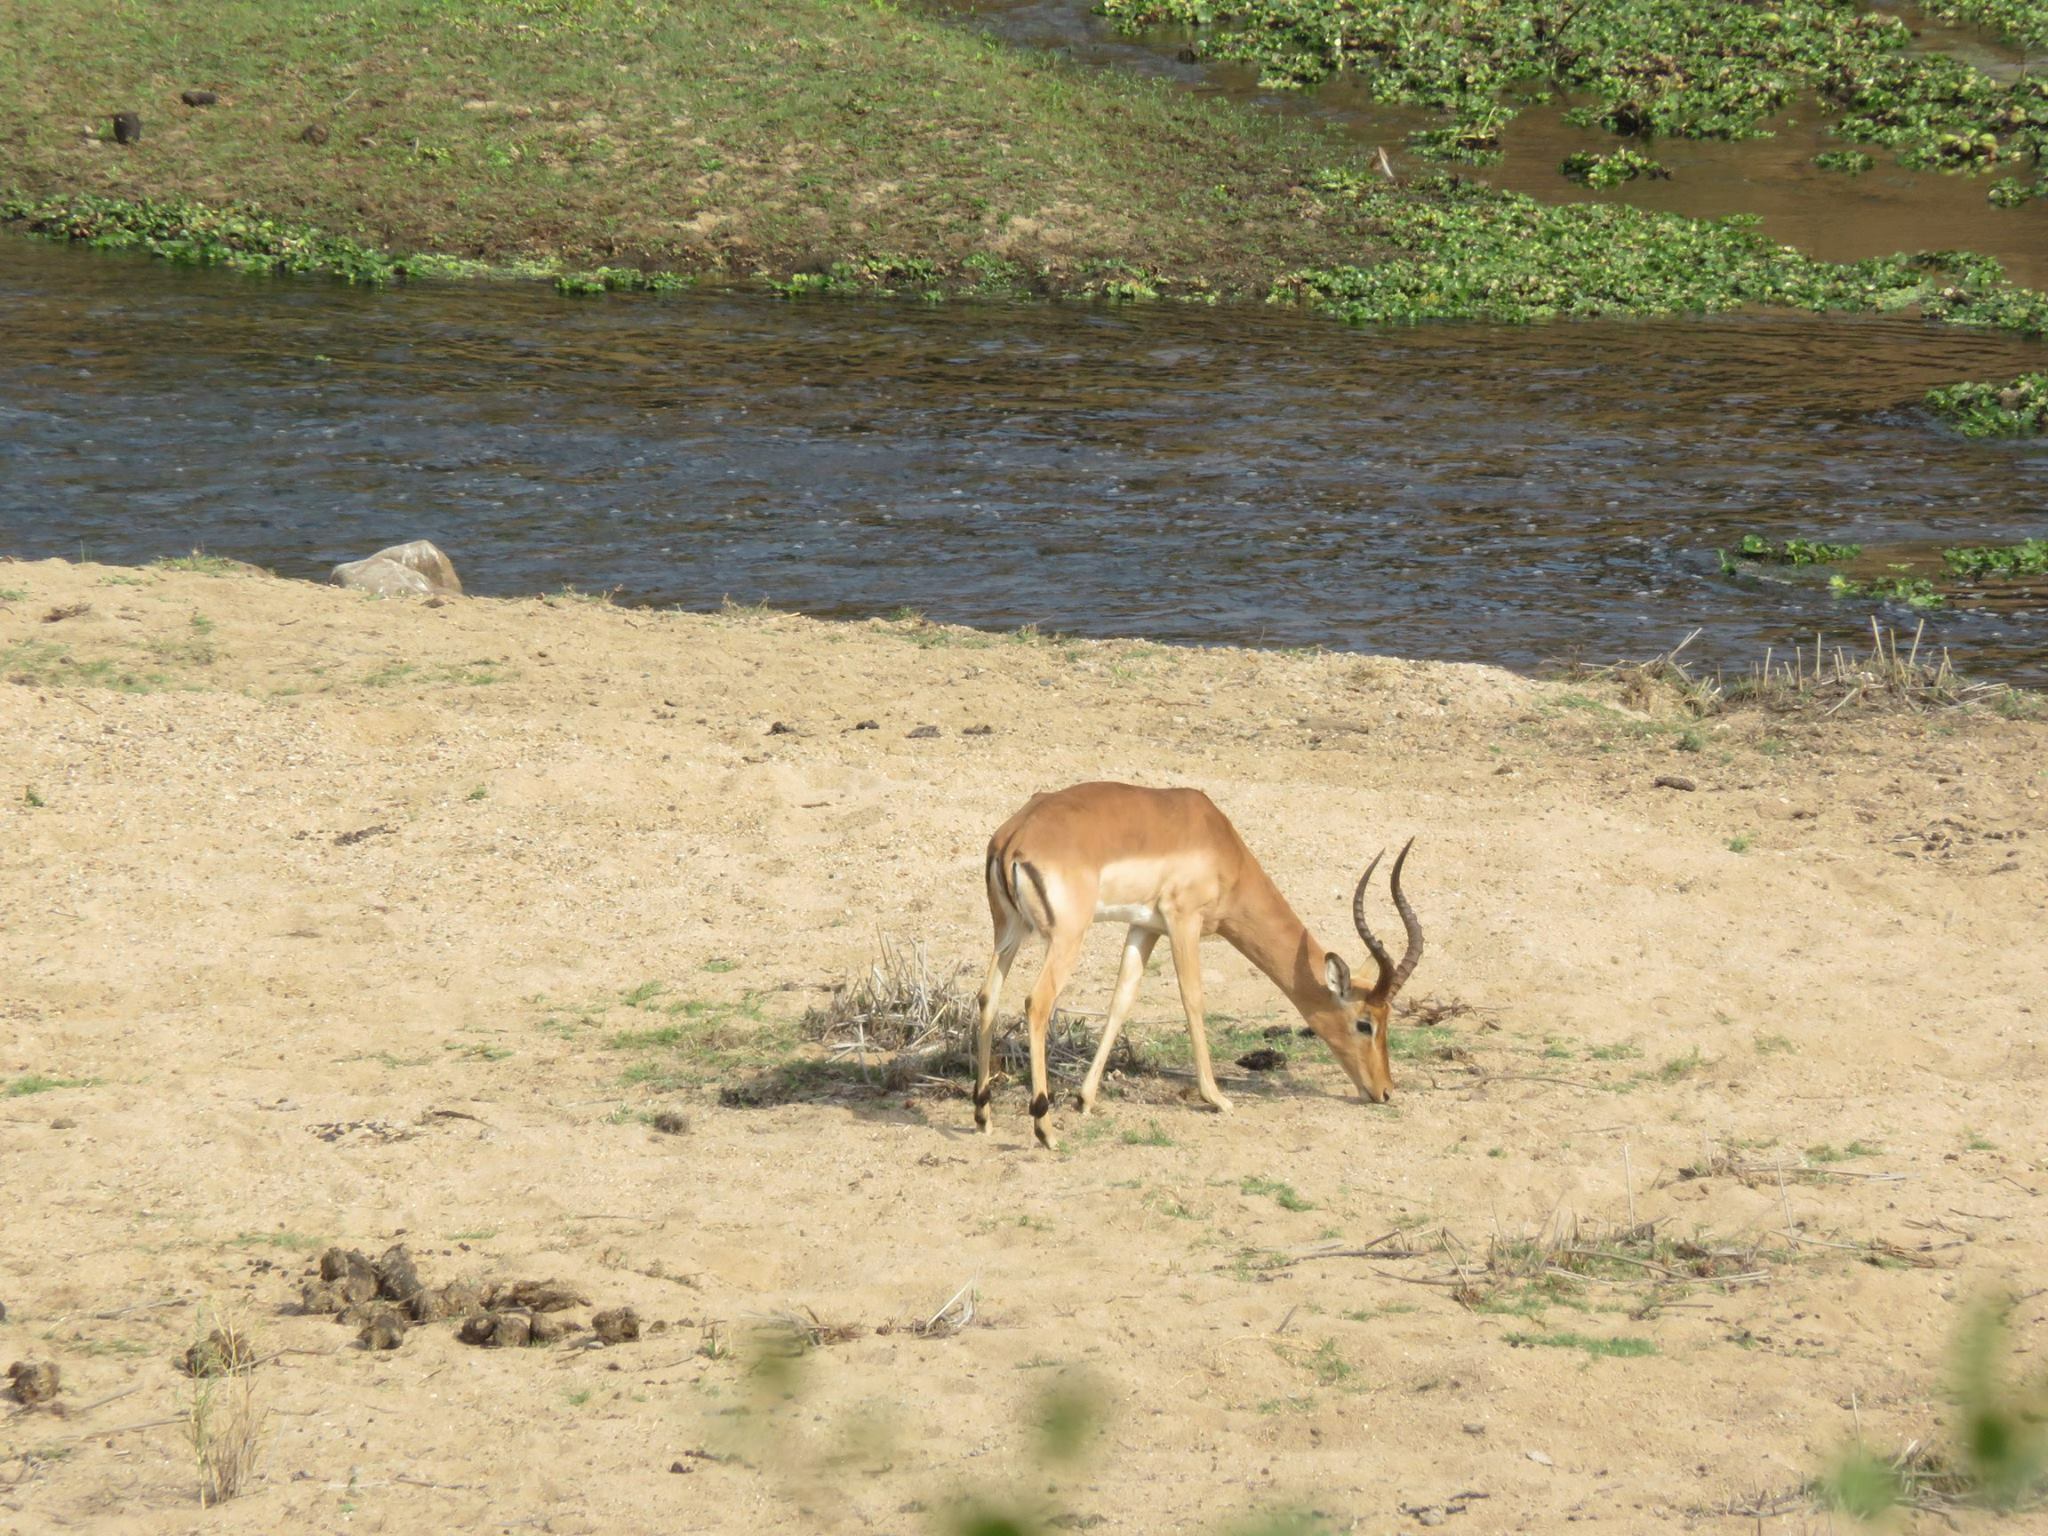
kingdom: Animalia
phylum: Chordata
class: Mammalia
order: Artiodactyla
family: Bovidae
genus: Aepyceros
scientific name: Aepyceros melampus
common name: Impala
